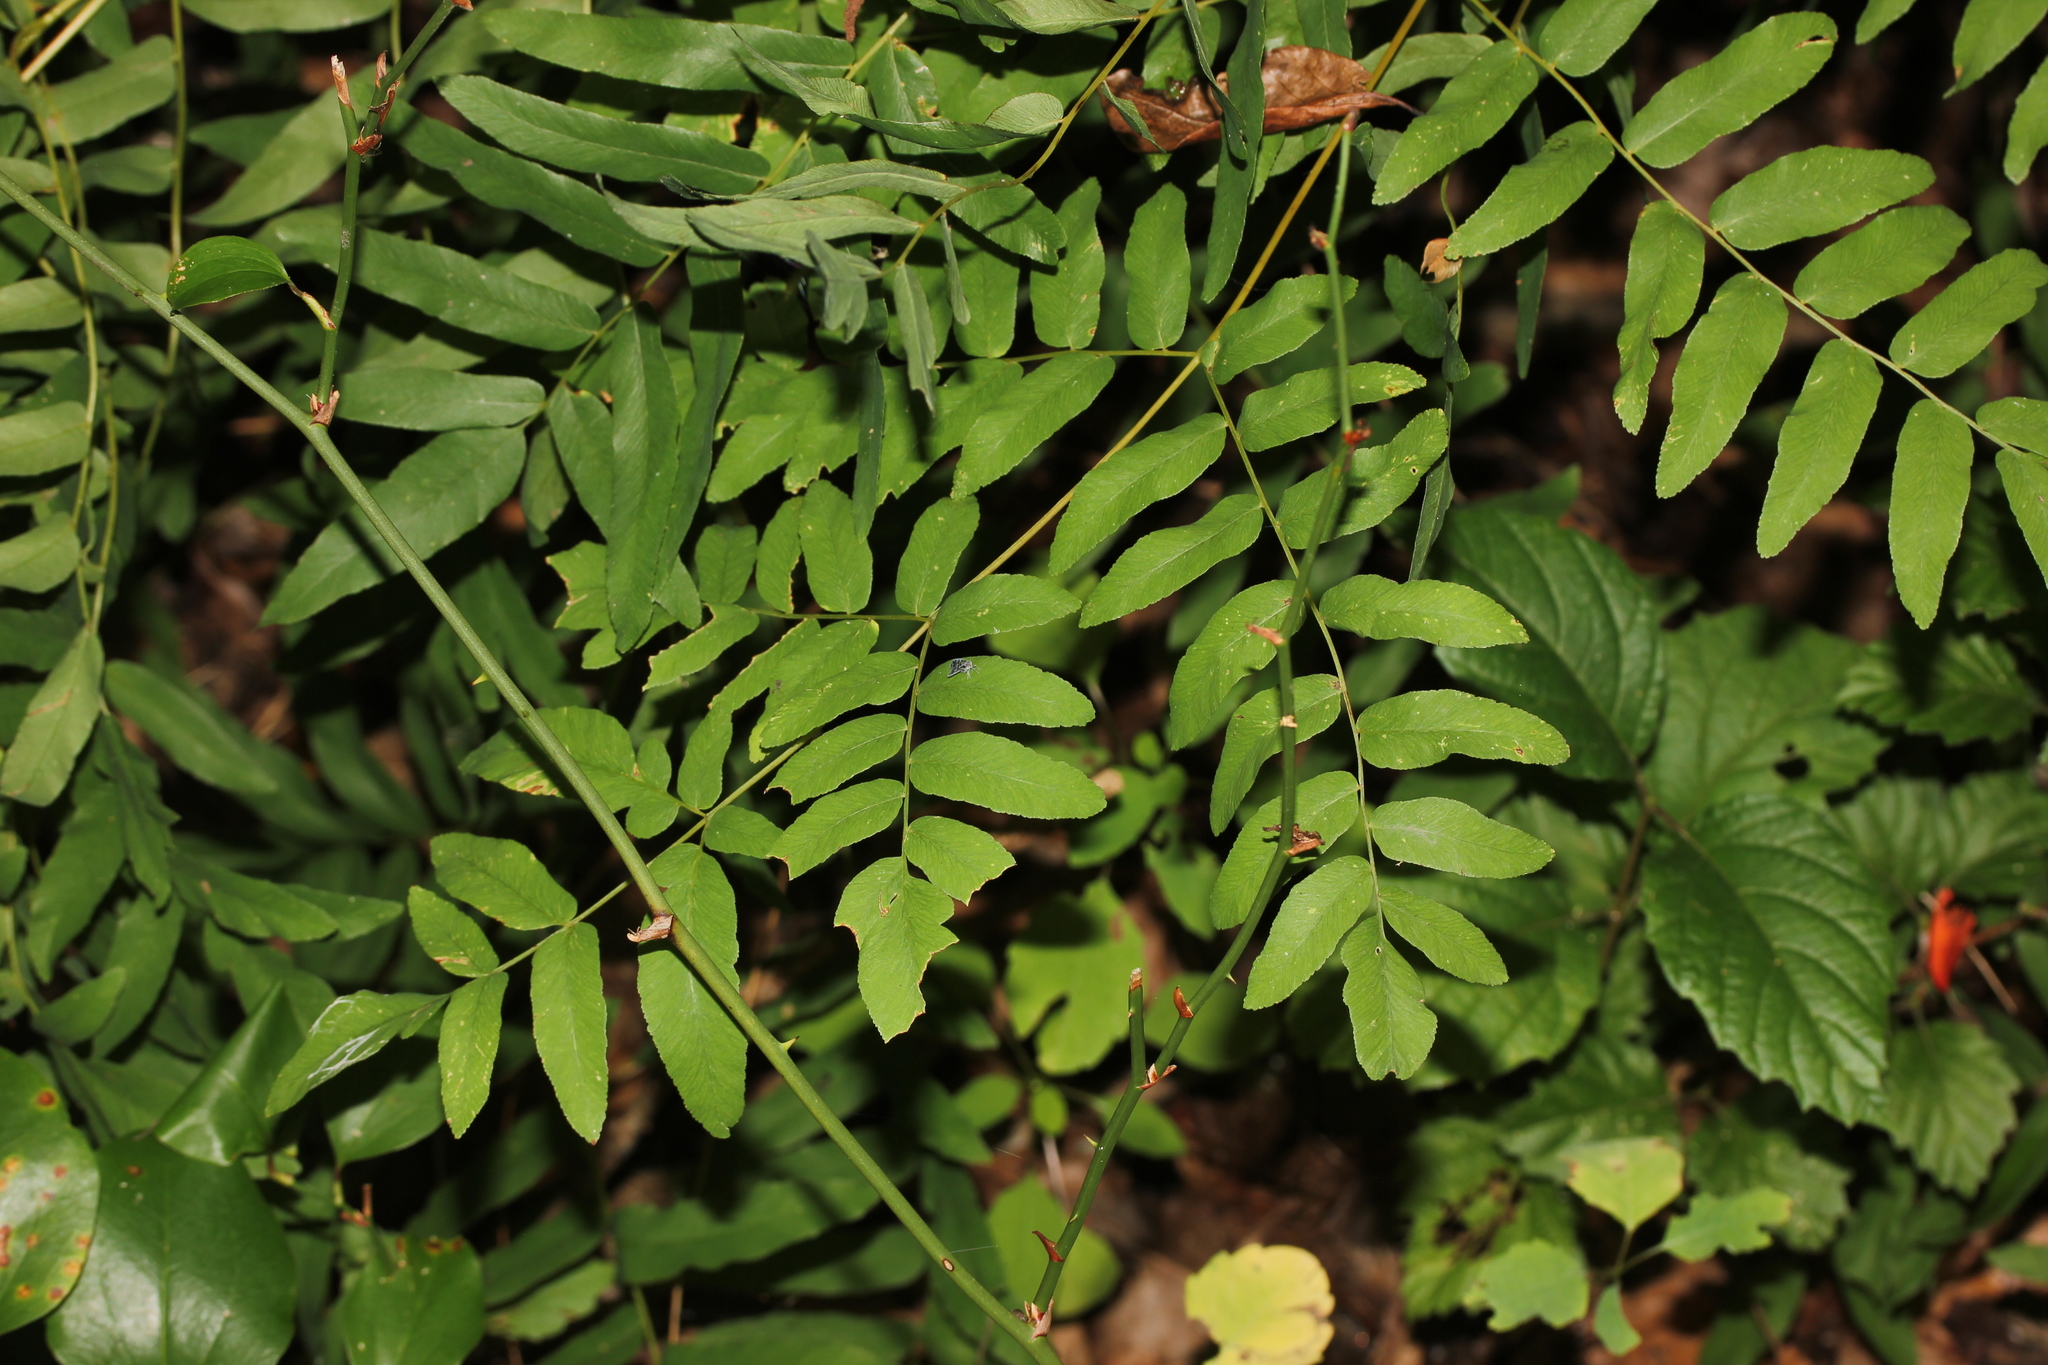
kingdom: Plantae
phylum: Tracheophyta
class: Polypodiopsida
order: Osmundales
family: Osmundaceae
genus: Osmunda
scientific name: Osmunda spectabilis
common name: American royal fern
